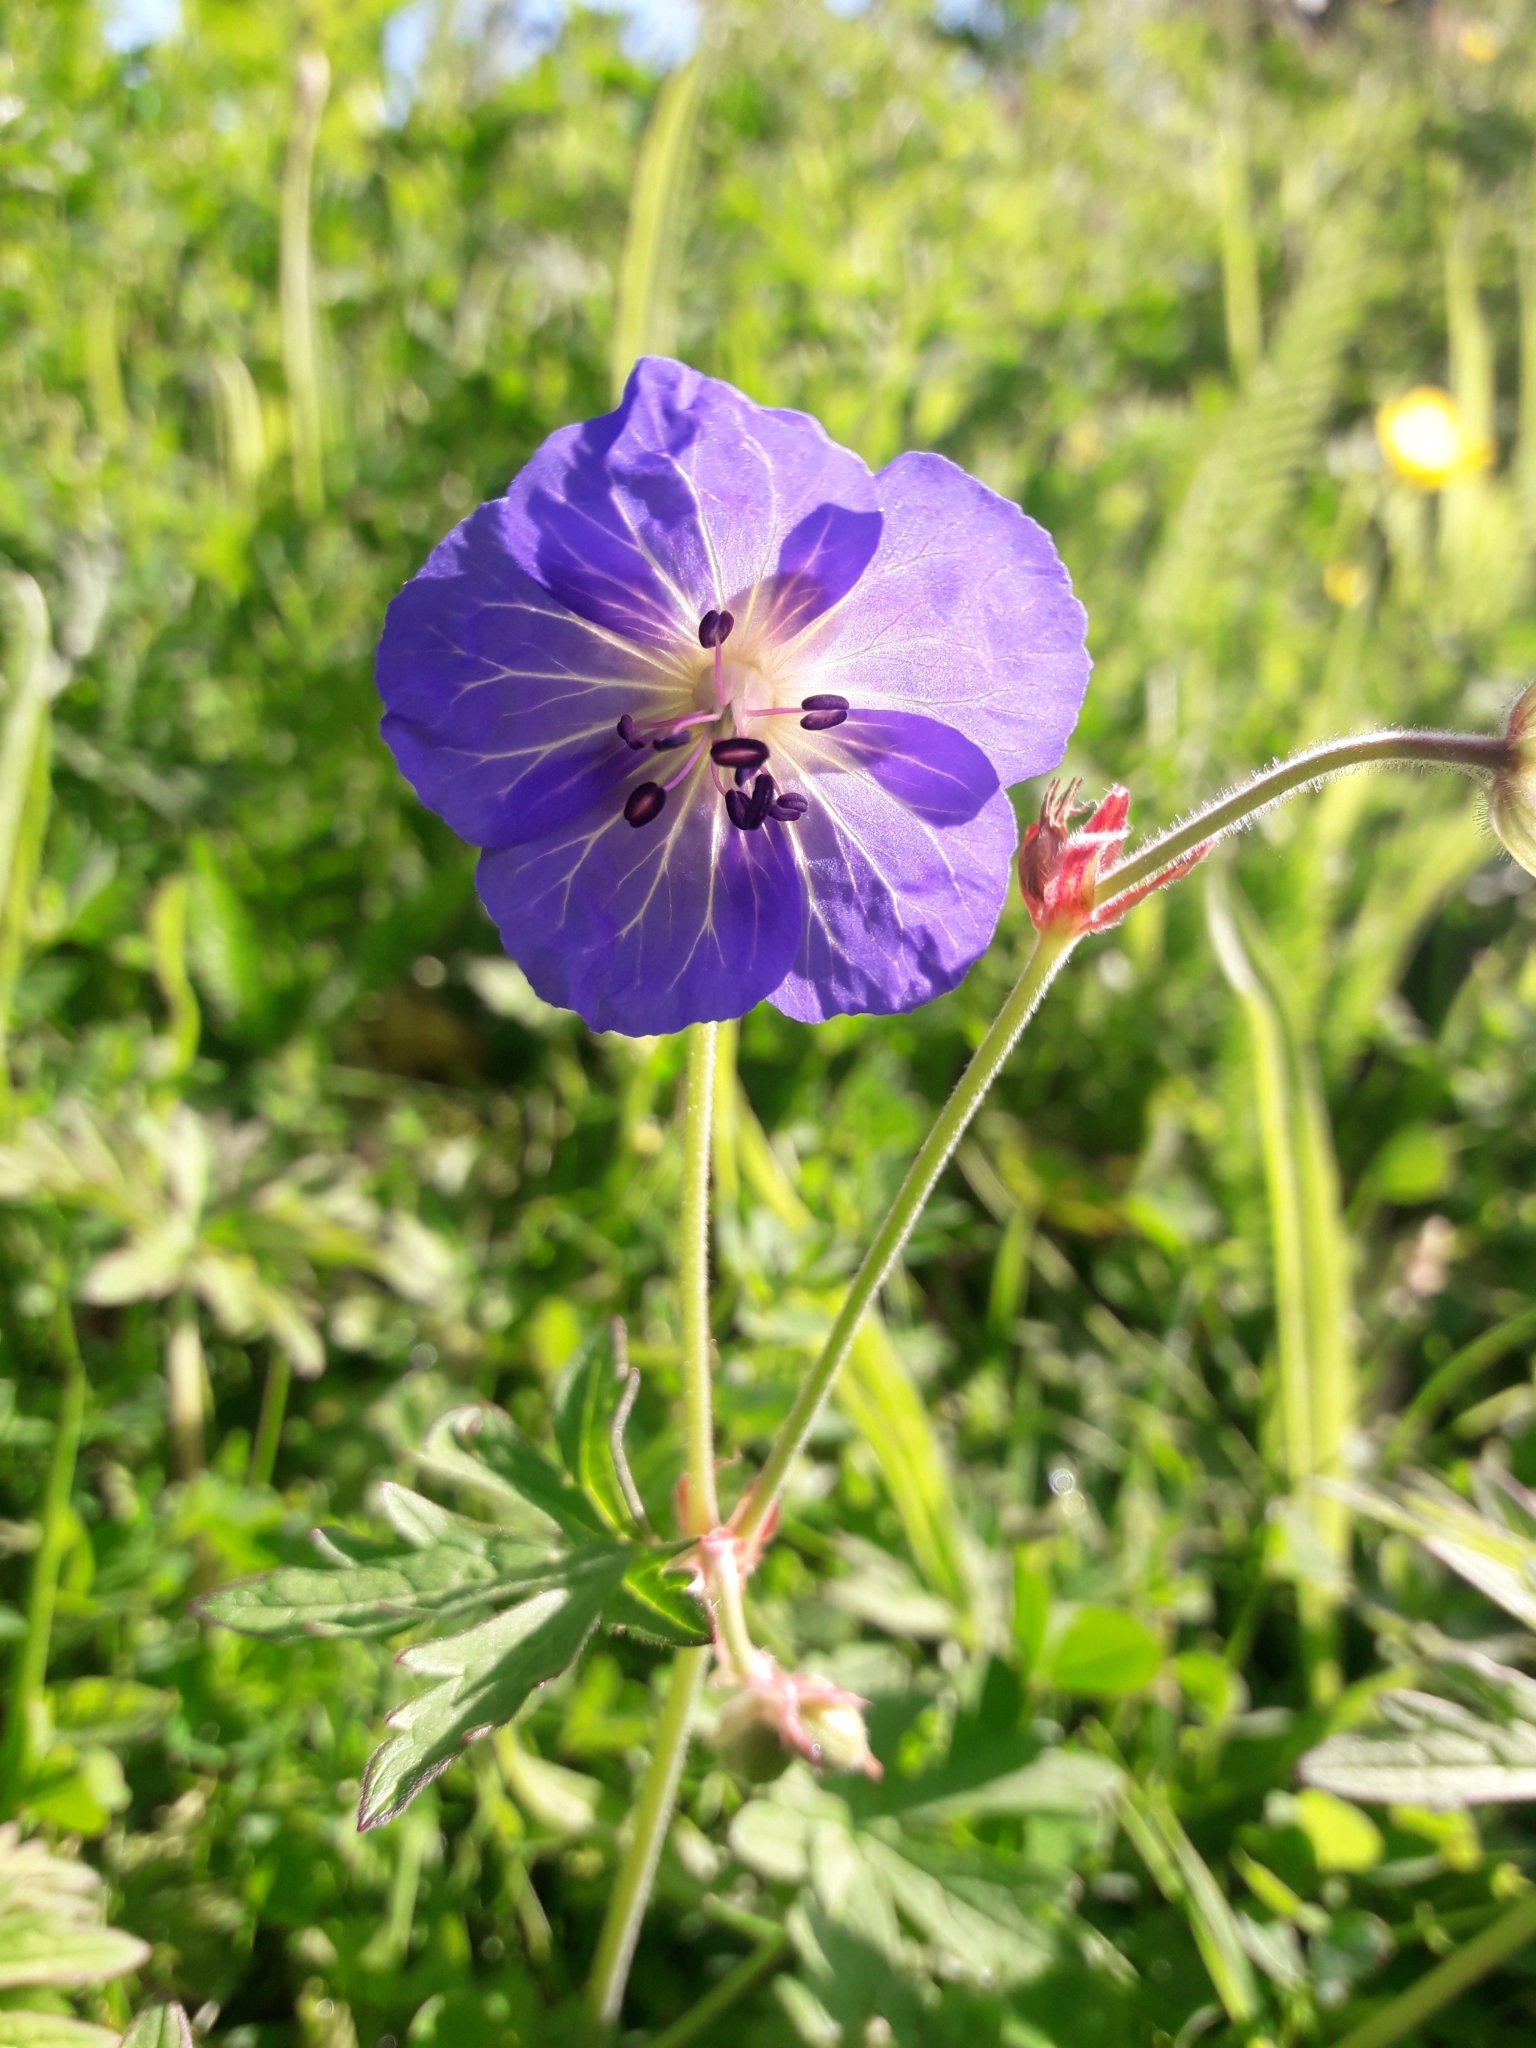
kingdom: Plantae
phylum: Tracheophyta
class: Magnoliopsida
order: Geraniales
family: Geraniaceae
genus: Geranium
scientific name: Geranium pratense
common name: Meadow crane's-bill
